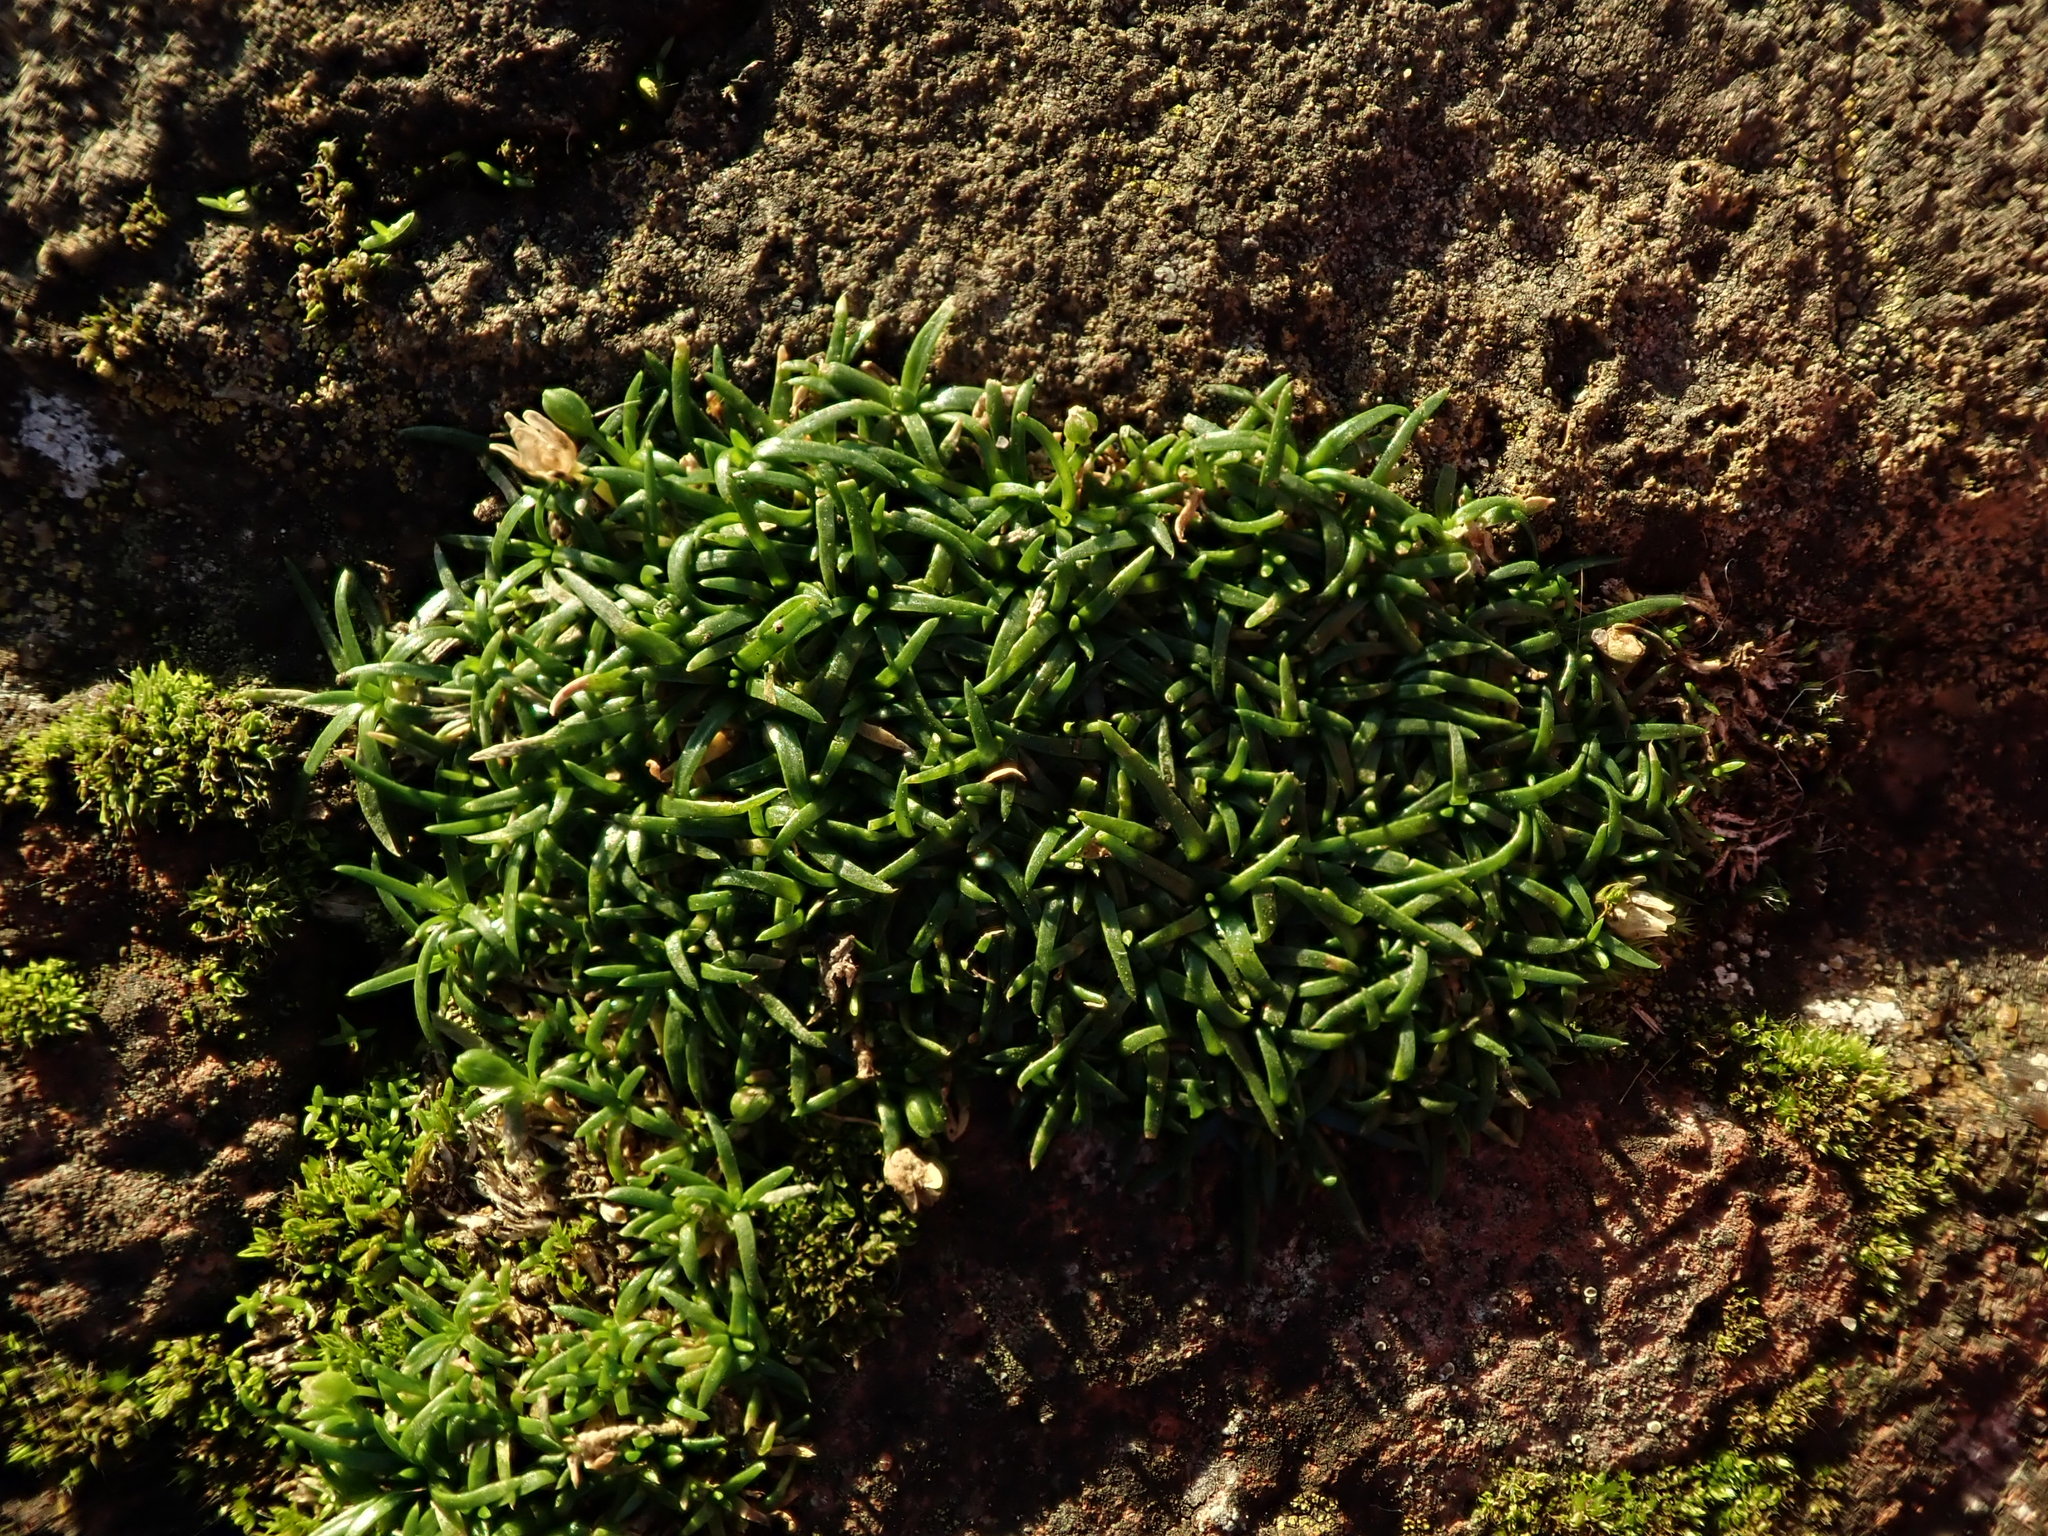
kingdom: Plantae
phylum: Tracheophyta
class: Magnoliopsida
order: Caryophyllales
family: Caryophyllaceae
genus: Sagina
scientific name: Sagina procumbens
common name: Procumbent pearlwort
